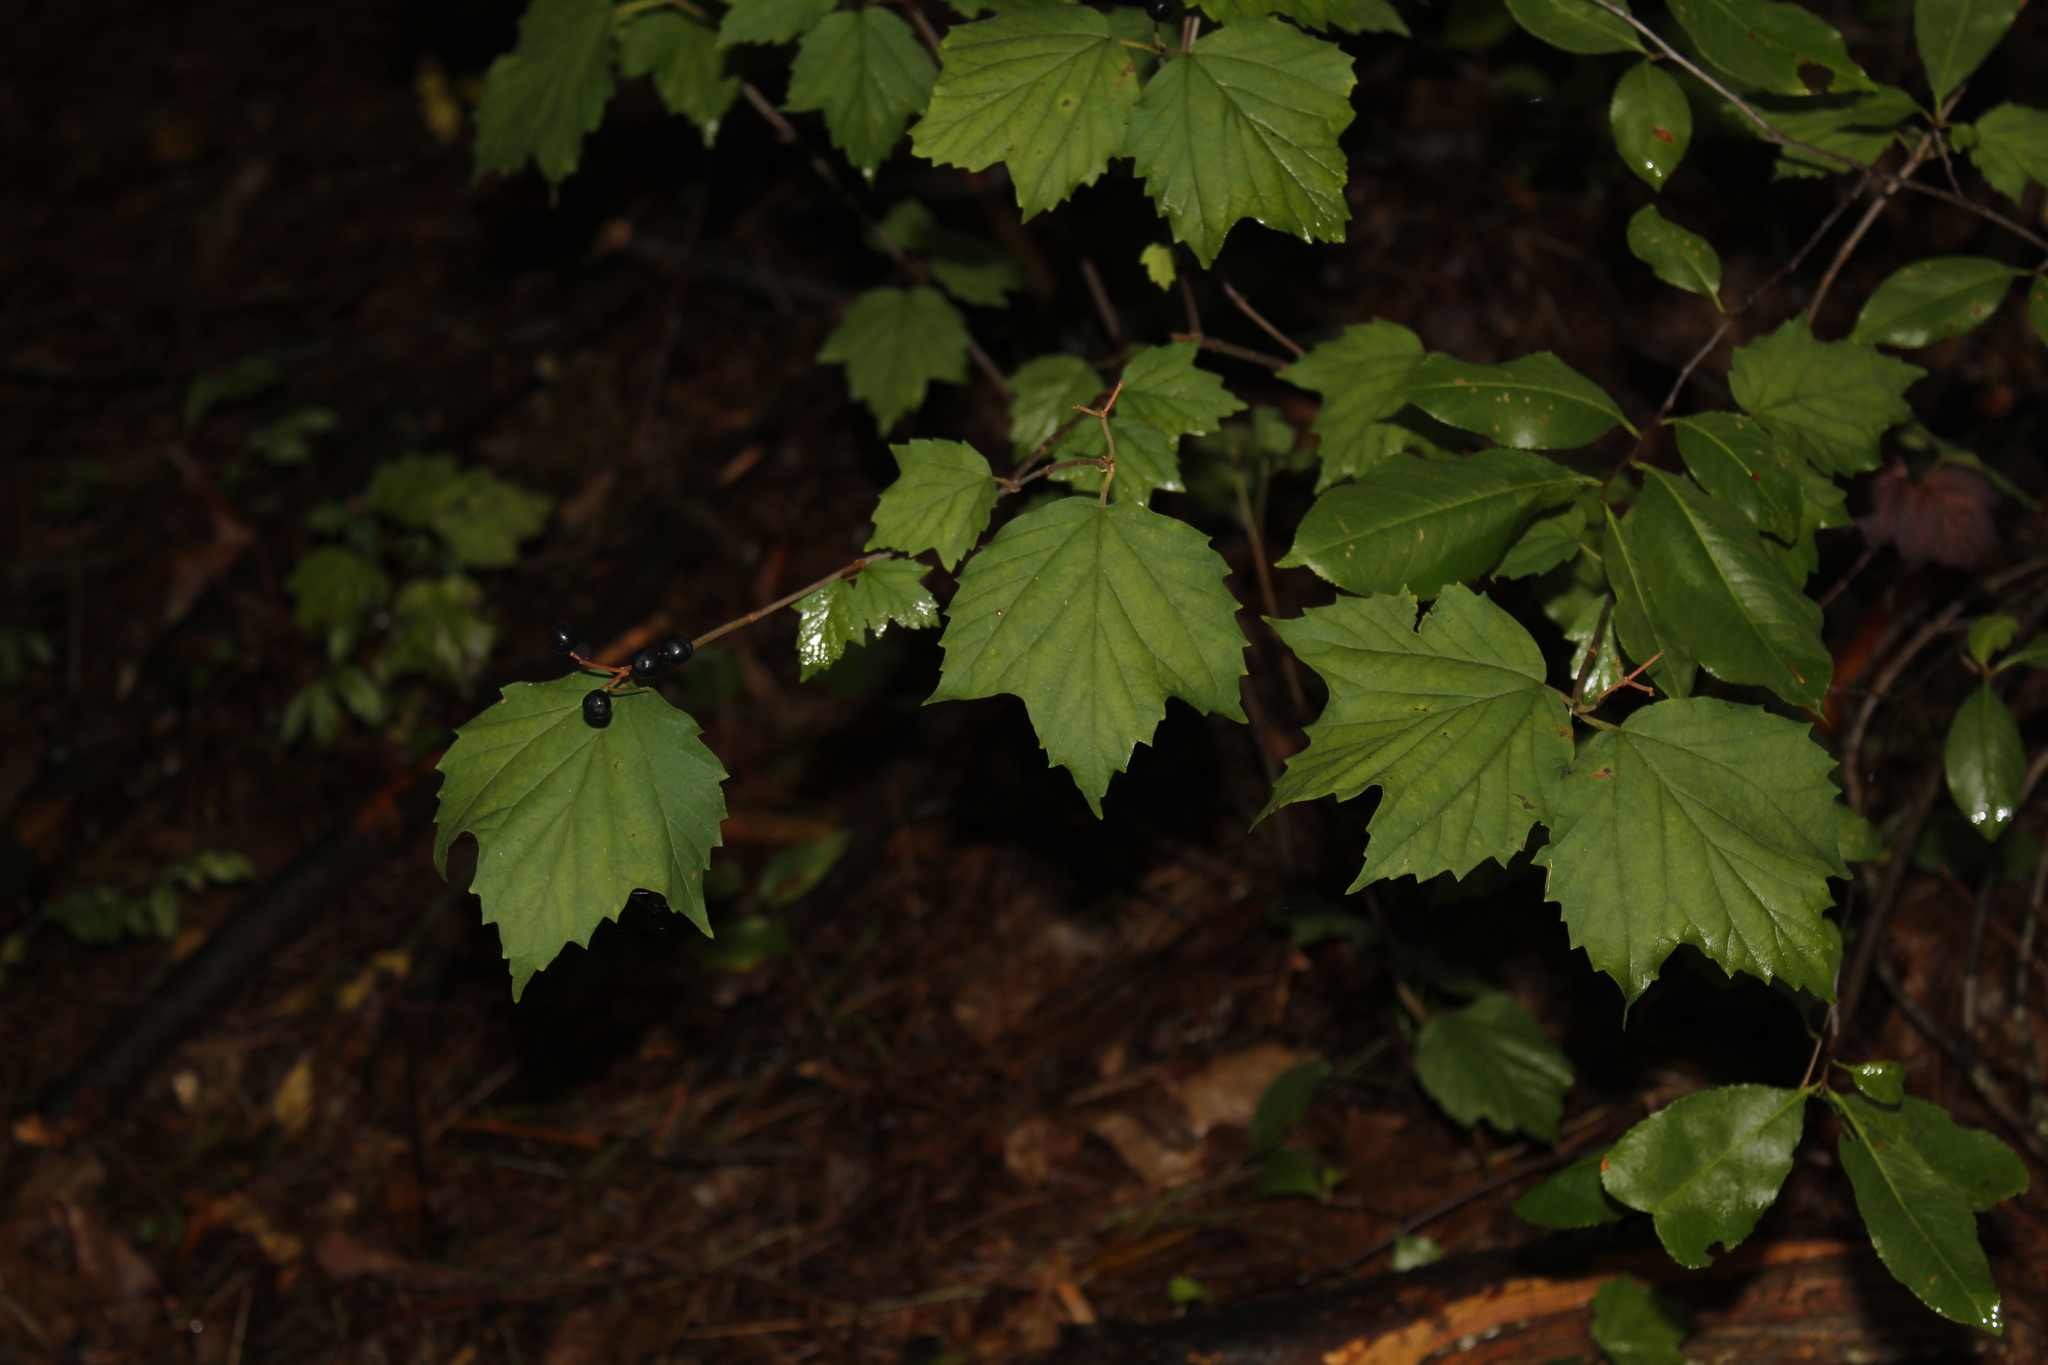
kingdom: Plantae
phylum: Tracheophyta
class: Magnoliopsida
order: Dipsacales
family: Viburnaceae
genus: Viburnum
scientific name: Viburnum acerifolium
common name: Dockmackie
